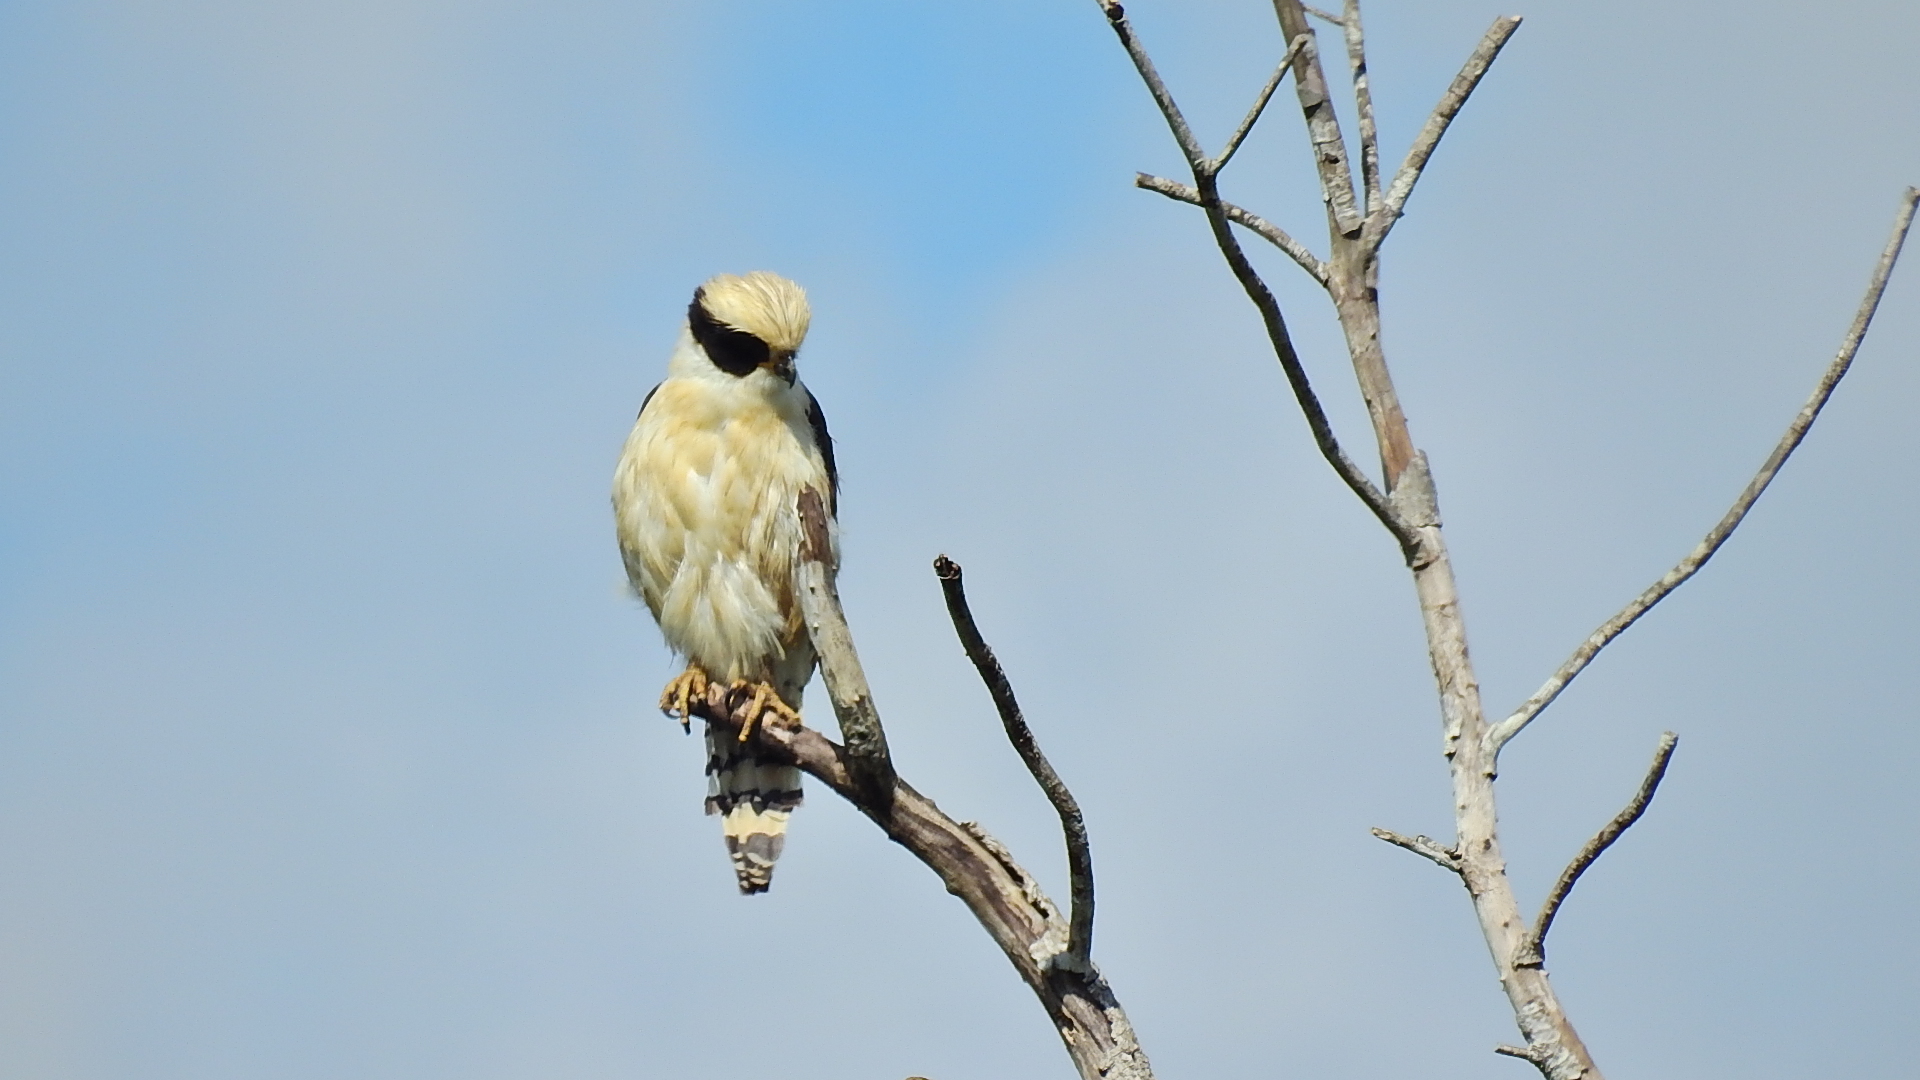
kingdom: Animalia
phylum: Chordata
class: Aves
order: Falconiformes
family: Falconidae
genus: Herpetotheres
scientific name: Herpetotheres cachinnans
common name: Laughing falcon
